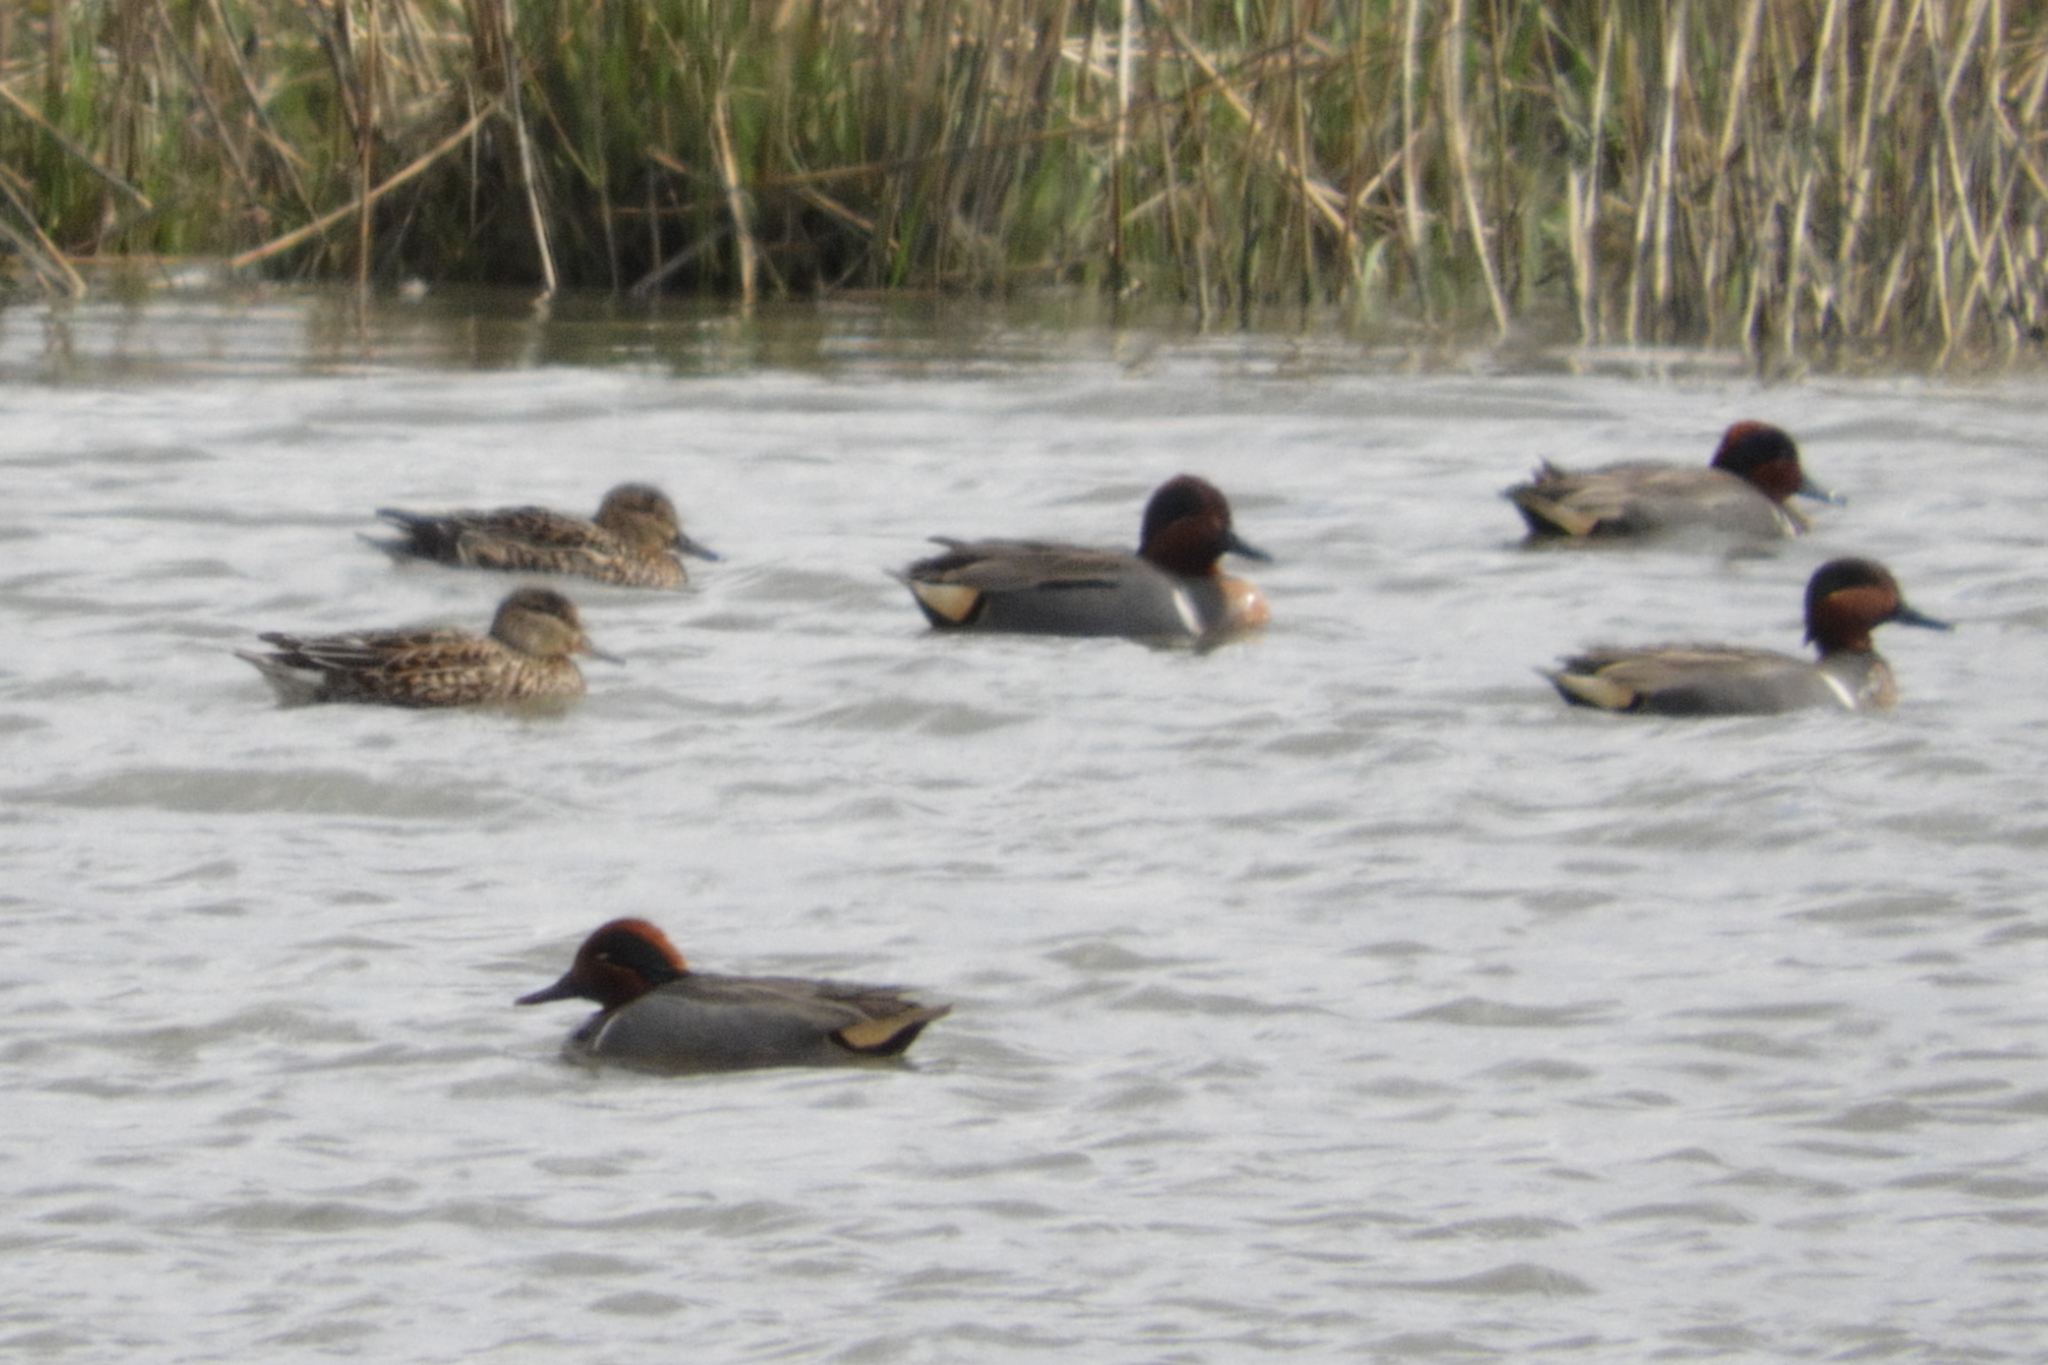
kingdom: Animalia
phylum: Chordata
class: Aves
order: Anseriformes
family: Anatidae
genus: Anas
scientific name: Anas crecca
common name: Eurasian teal
